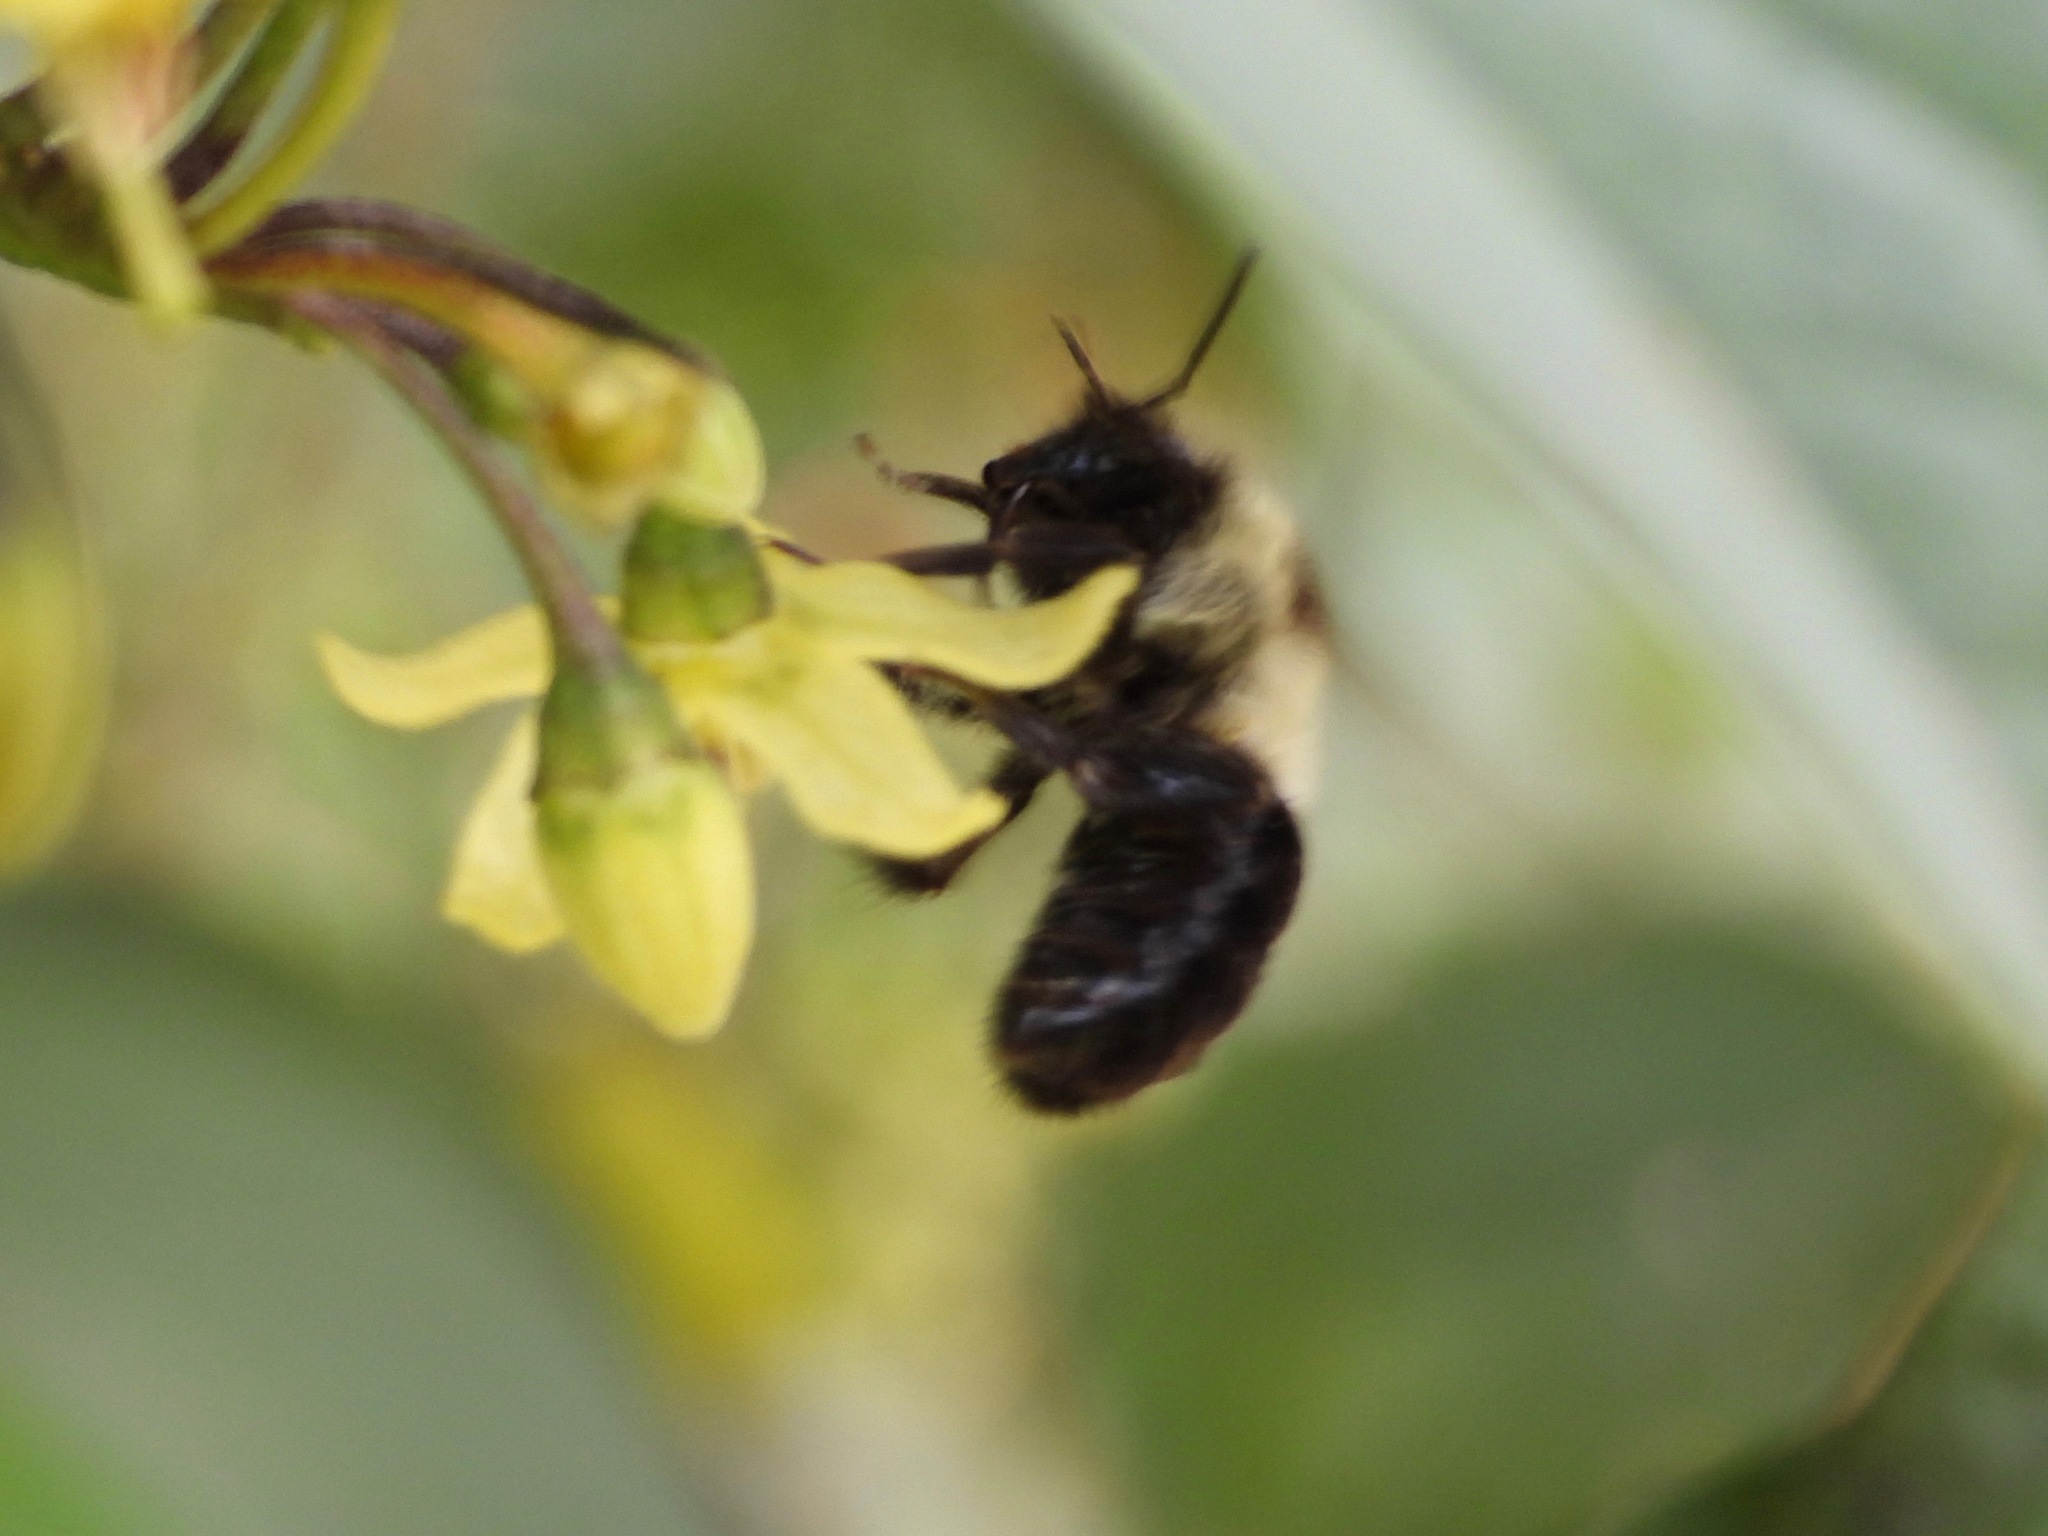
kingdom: Animalia
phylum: Arthropoda
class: Insecta
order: Hymenoptera
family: Apidae
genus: Bombus
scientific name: Bombus wilmattae
